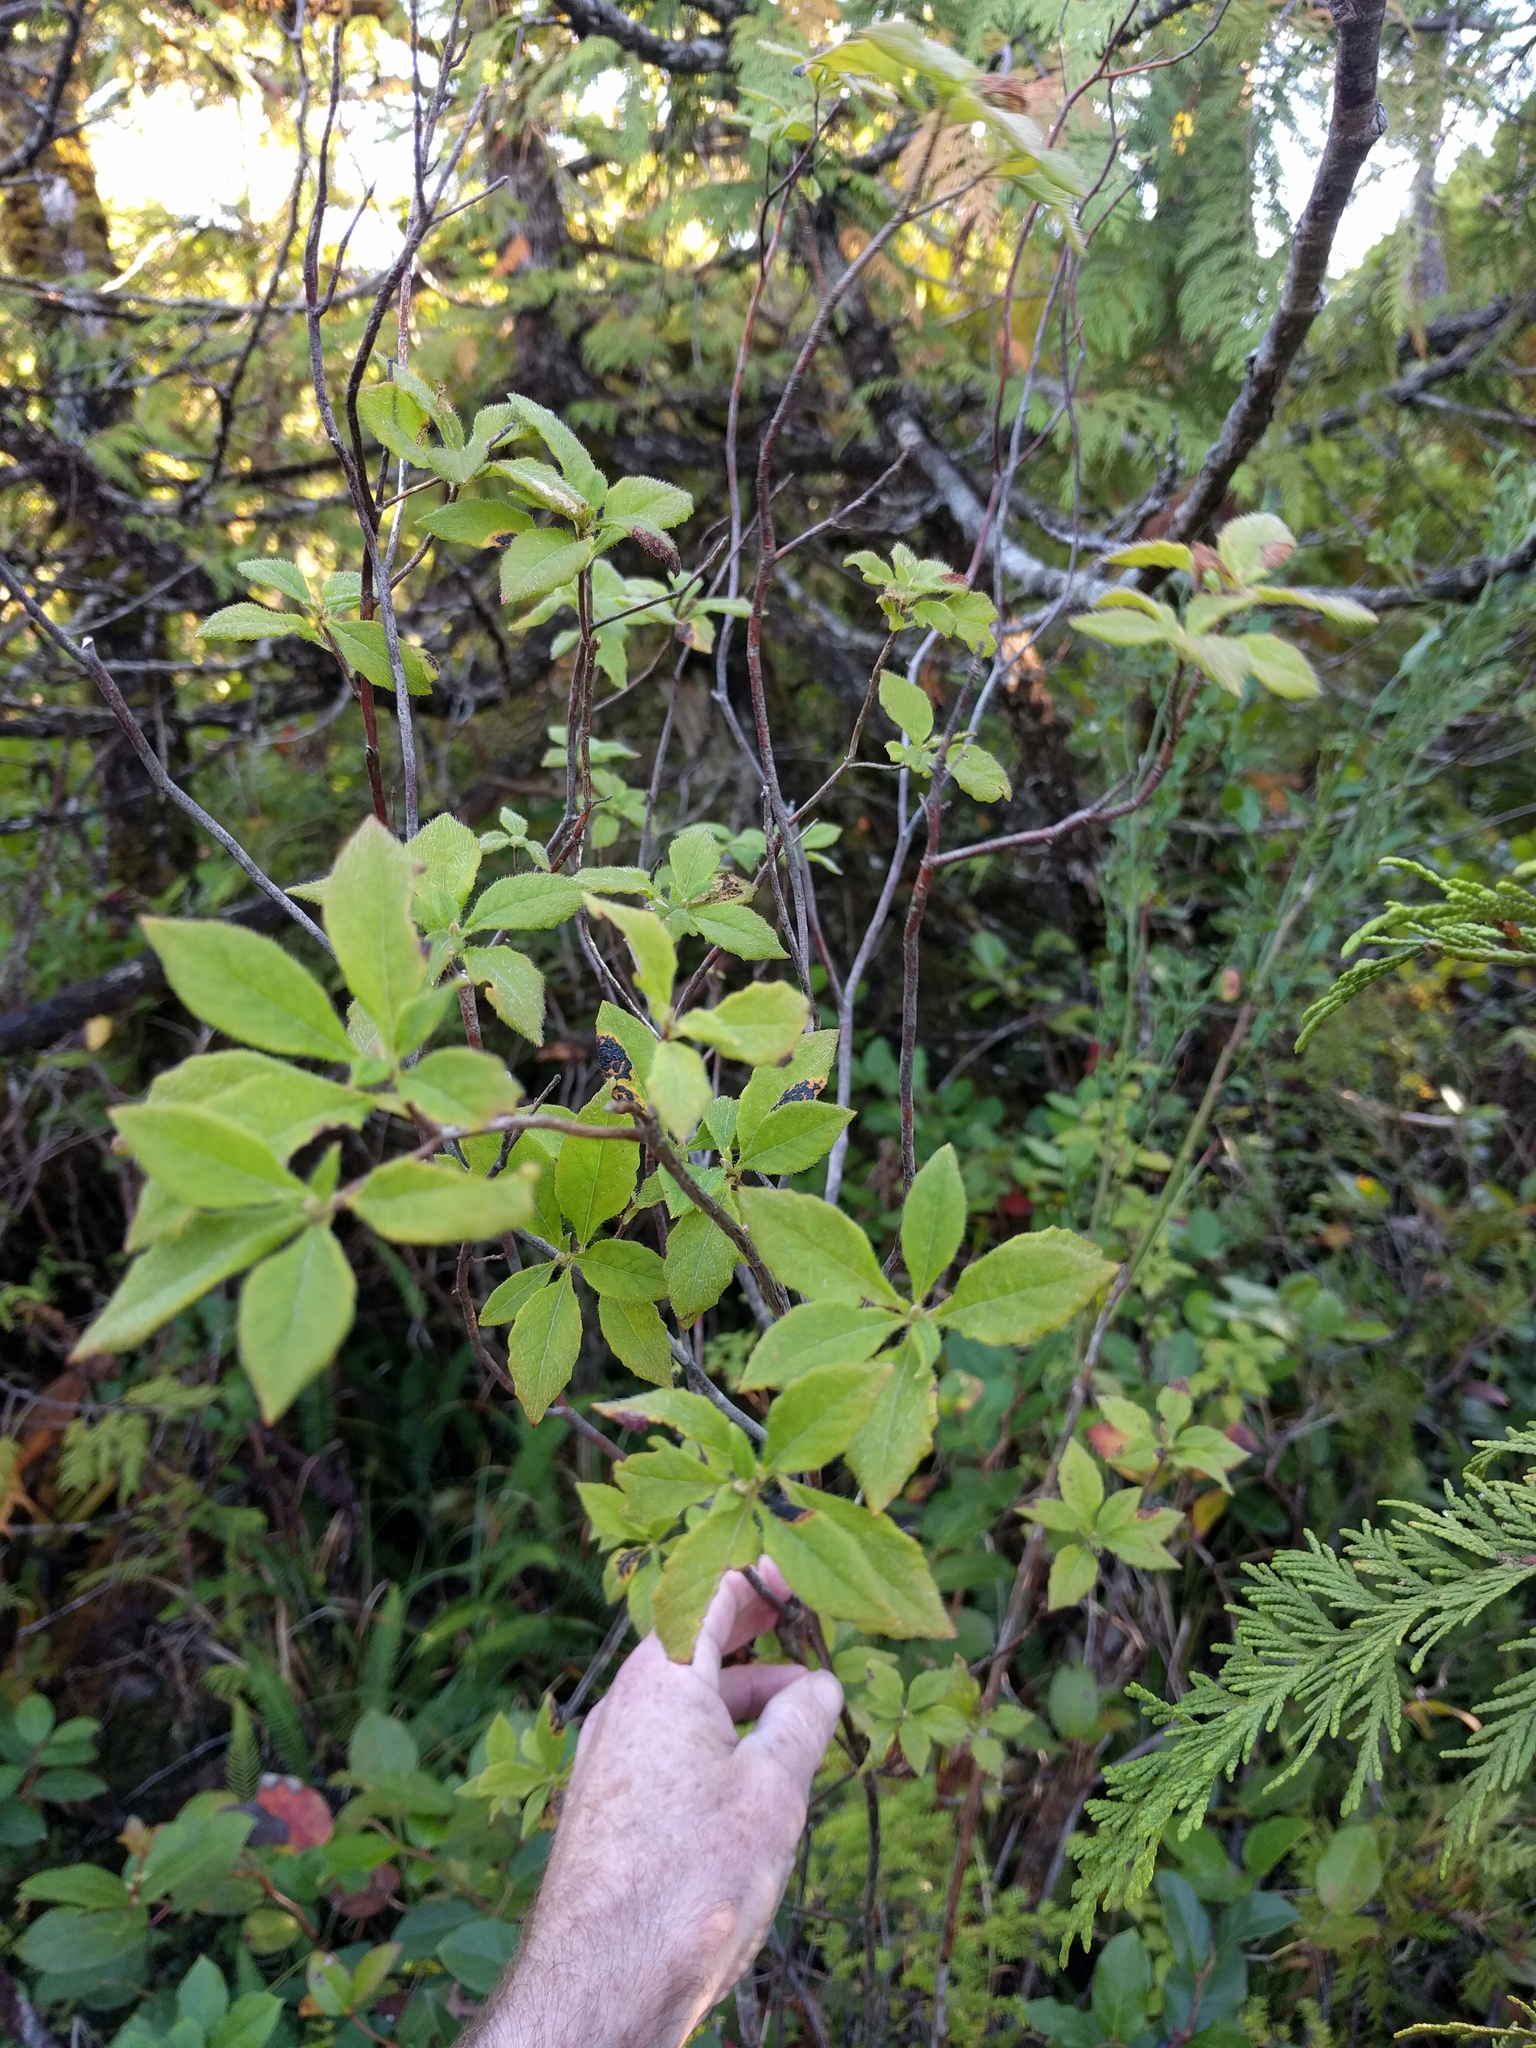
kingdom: Plantae
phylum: Tracheophyta
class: Magnoliopsida
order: Ericales
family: Ericaceae
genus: Rhododendron
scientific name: Rhododendron menziesii
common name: Pacific menziesia
